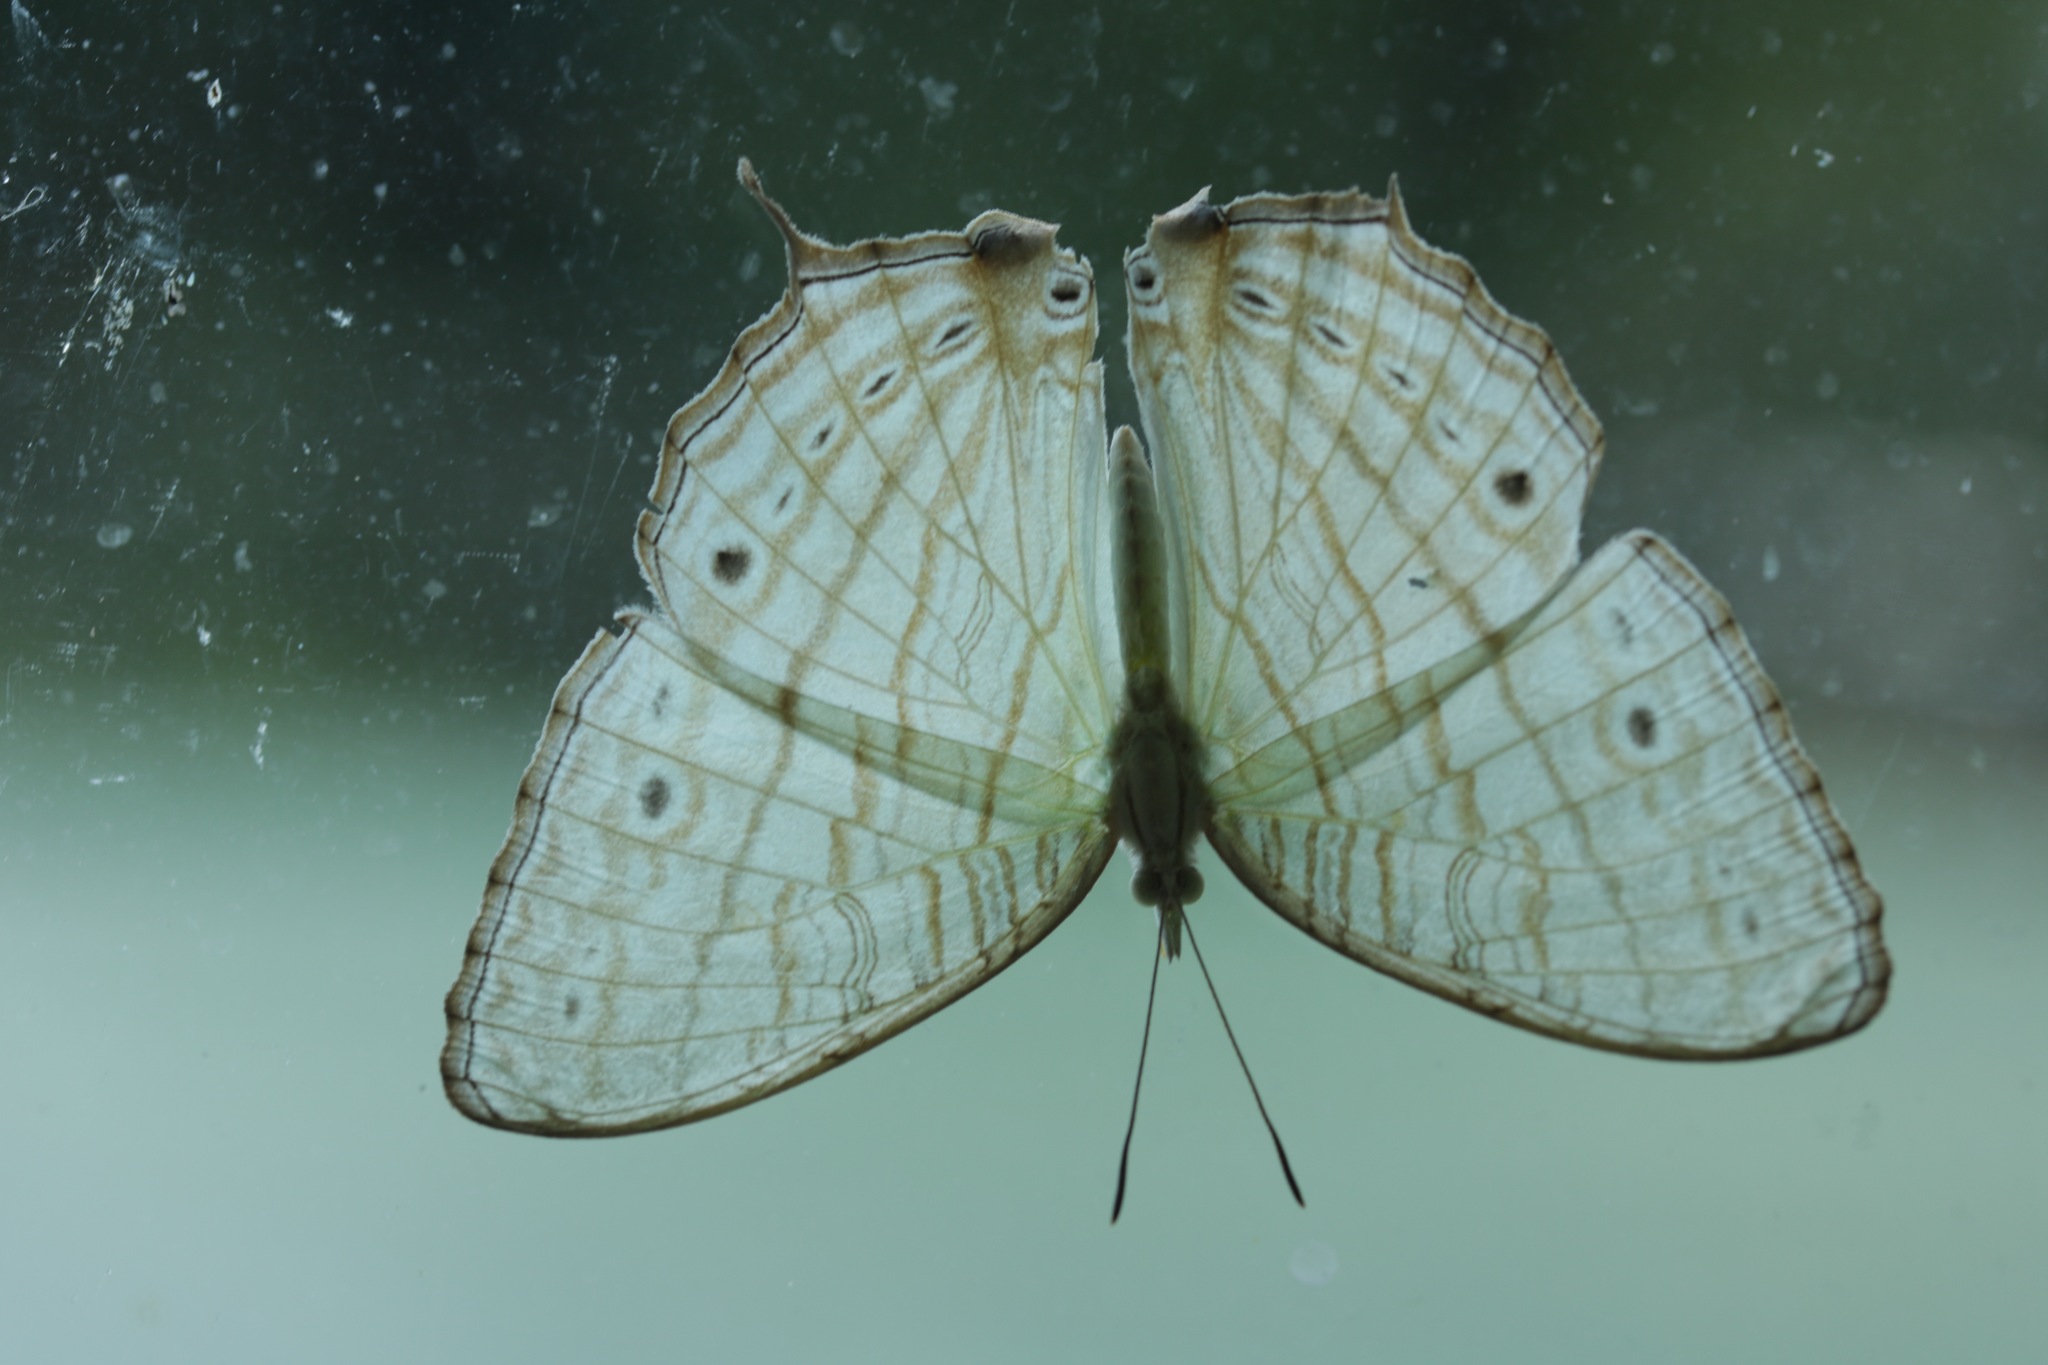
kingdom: Animalia
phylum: Arthropoda
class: Insecta
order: Lepidoptera
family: Nymphalidae
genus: Cyrestis
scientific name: Cyrestis cocles
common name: Marbled map
